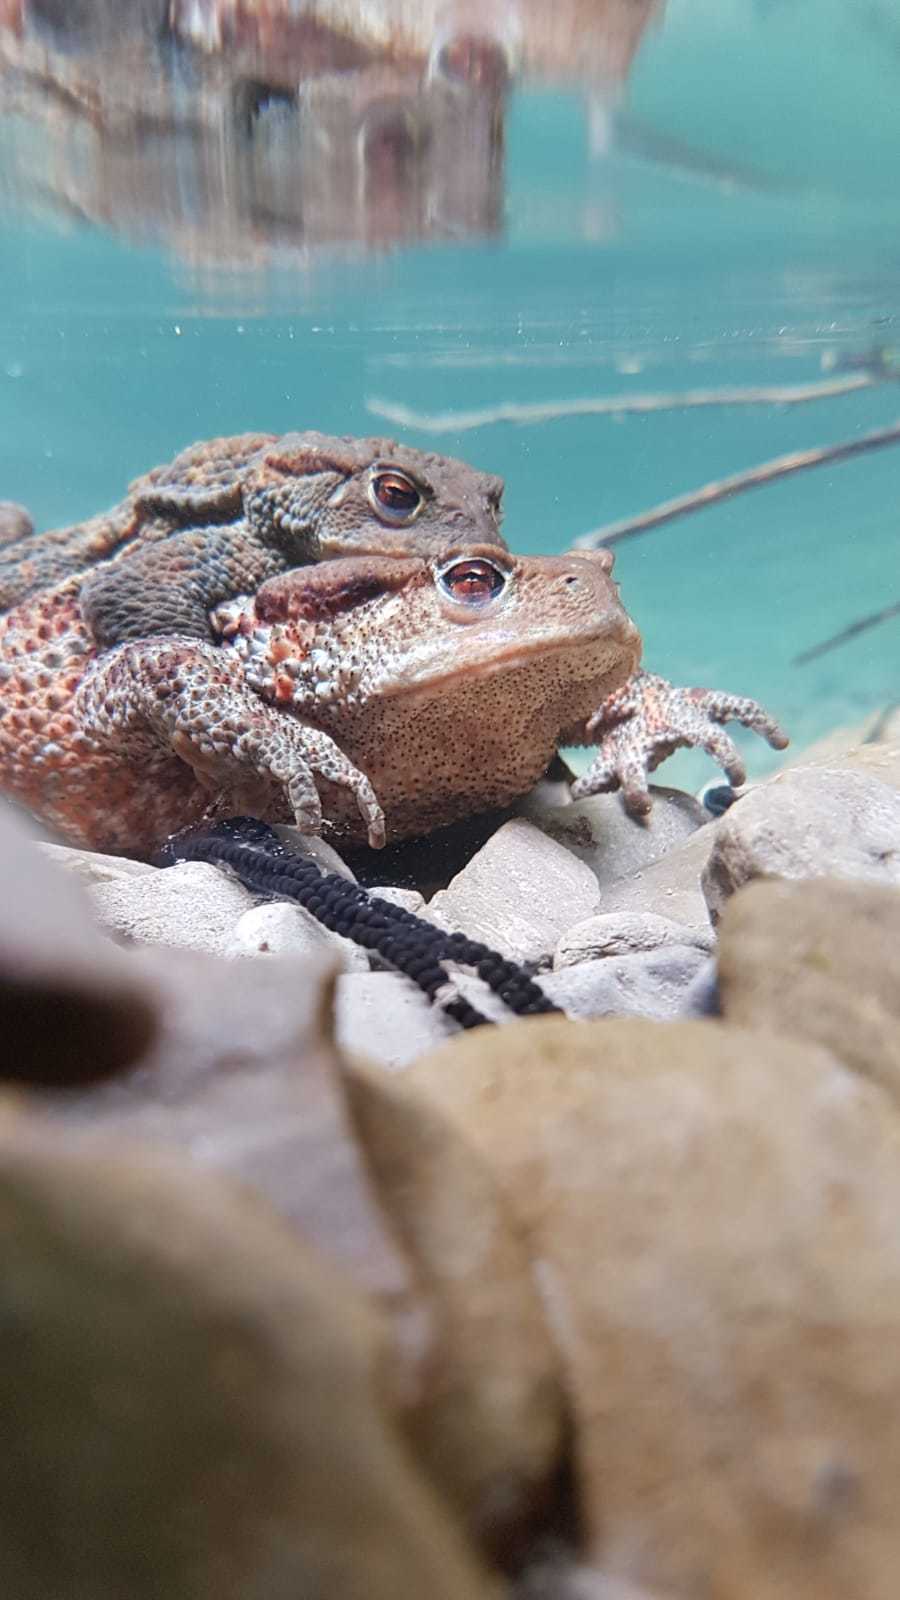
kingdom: Animalia
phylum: Chordata
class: Amphibia
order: Anura
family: Bufonidae
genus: Bufo
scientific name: Bufo bufo
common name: Common toad
